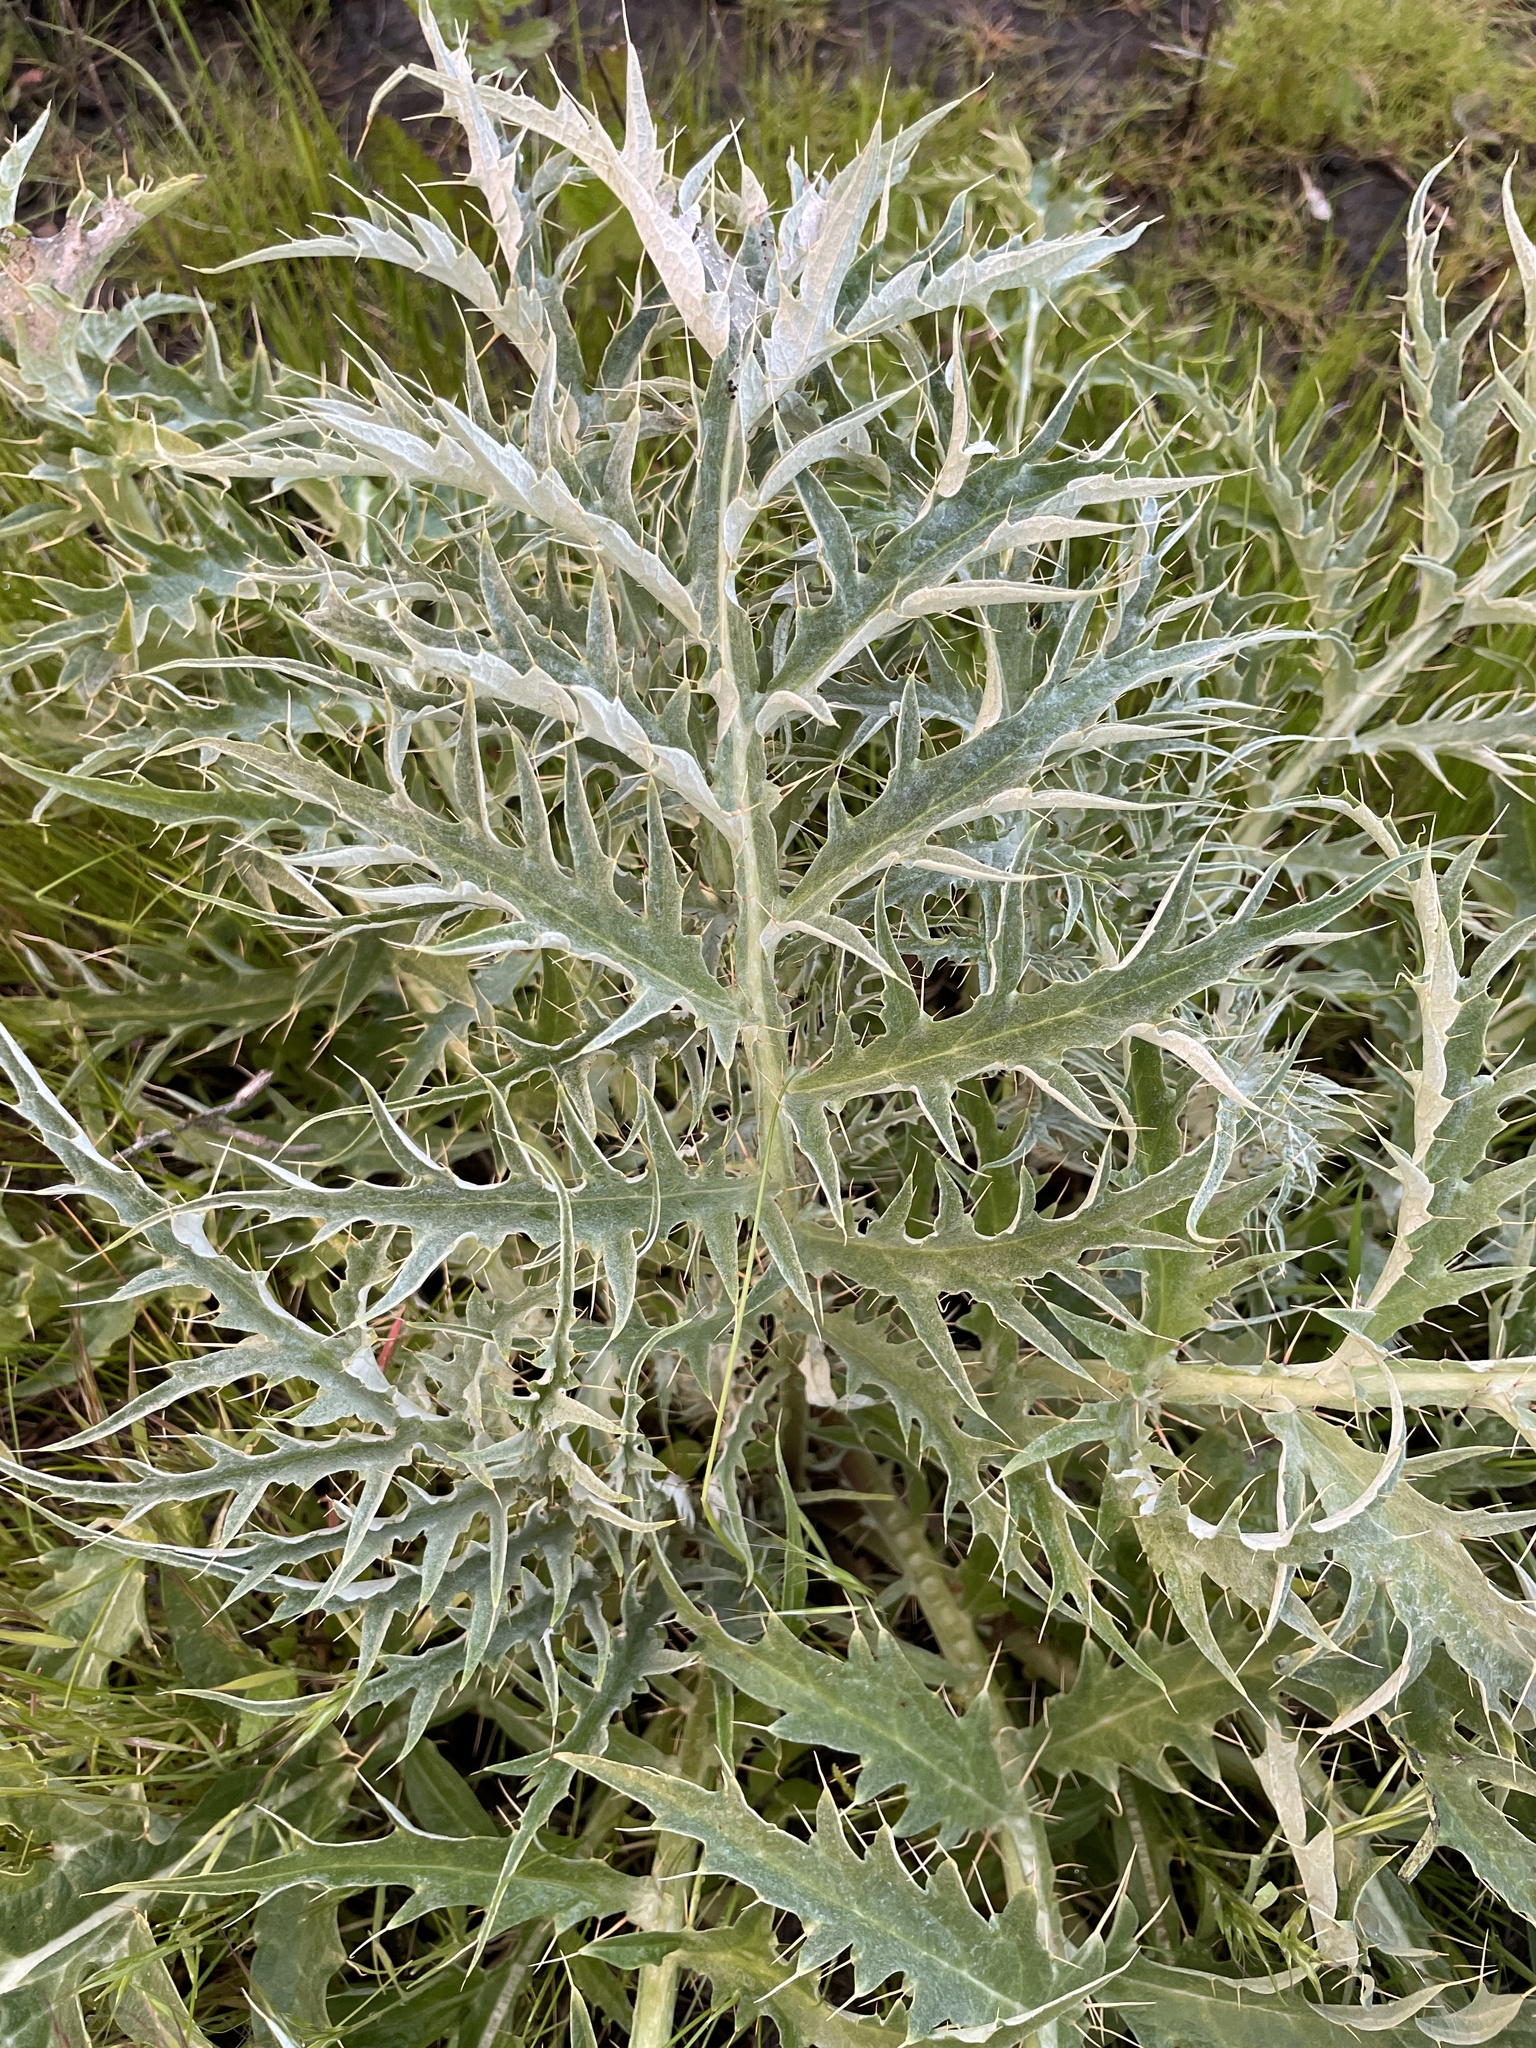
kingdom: Plantae
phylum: Tracheophyta
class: Magnoliopsida
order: Asterales
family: Asteraceae
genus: Cynara
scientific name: Cynara cardunculus
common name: Globe artichoke
